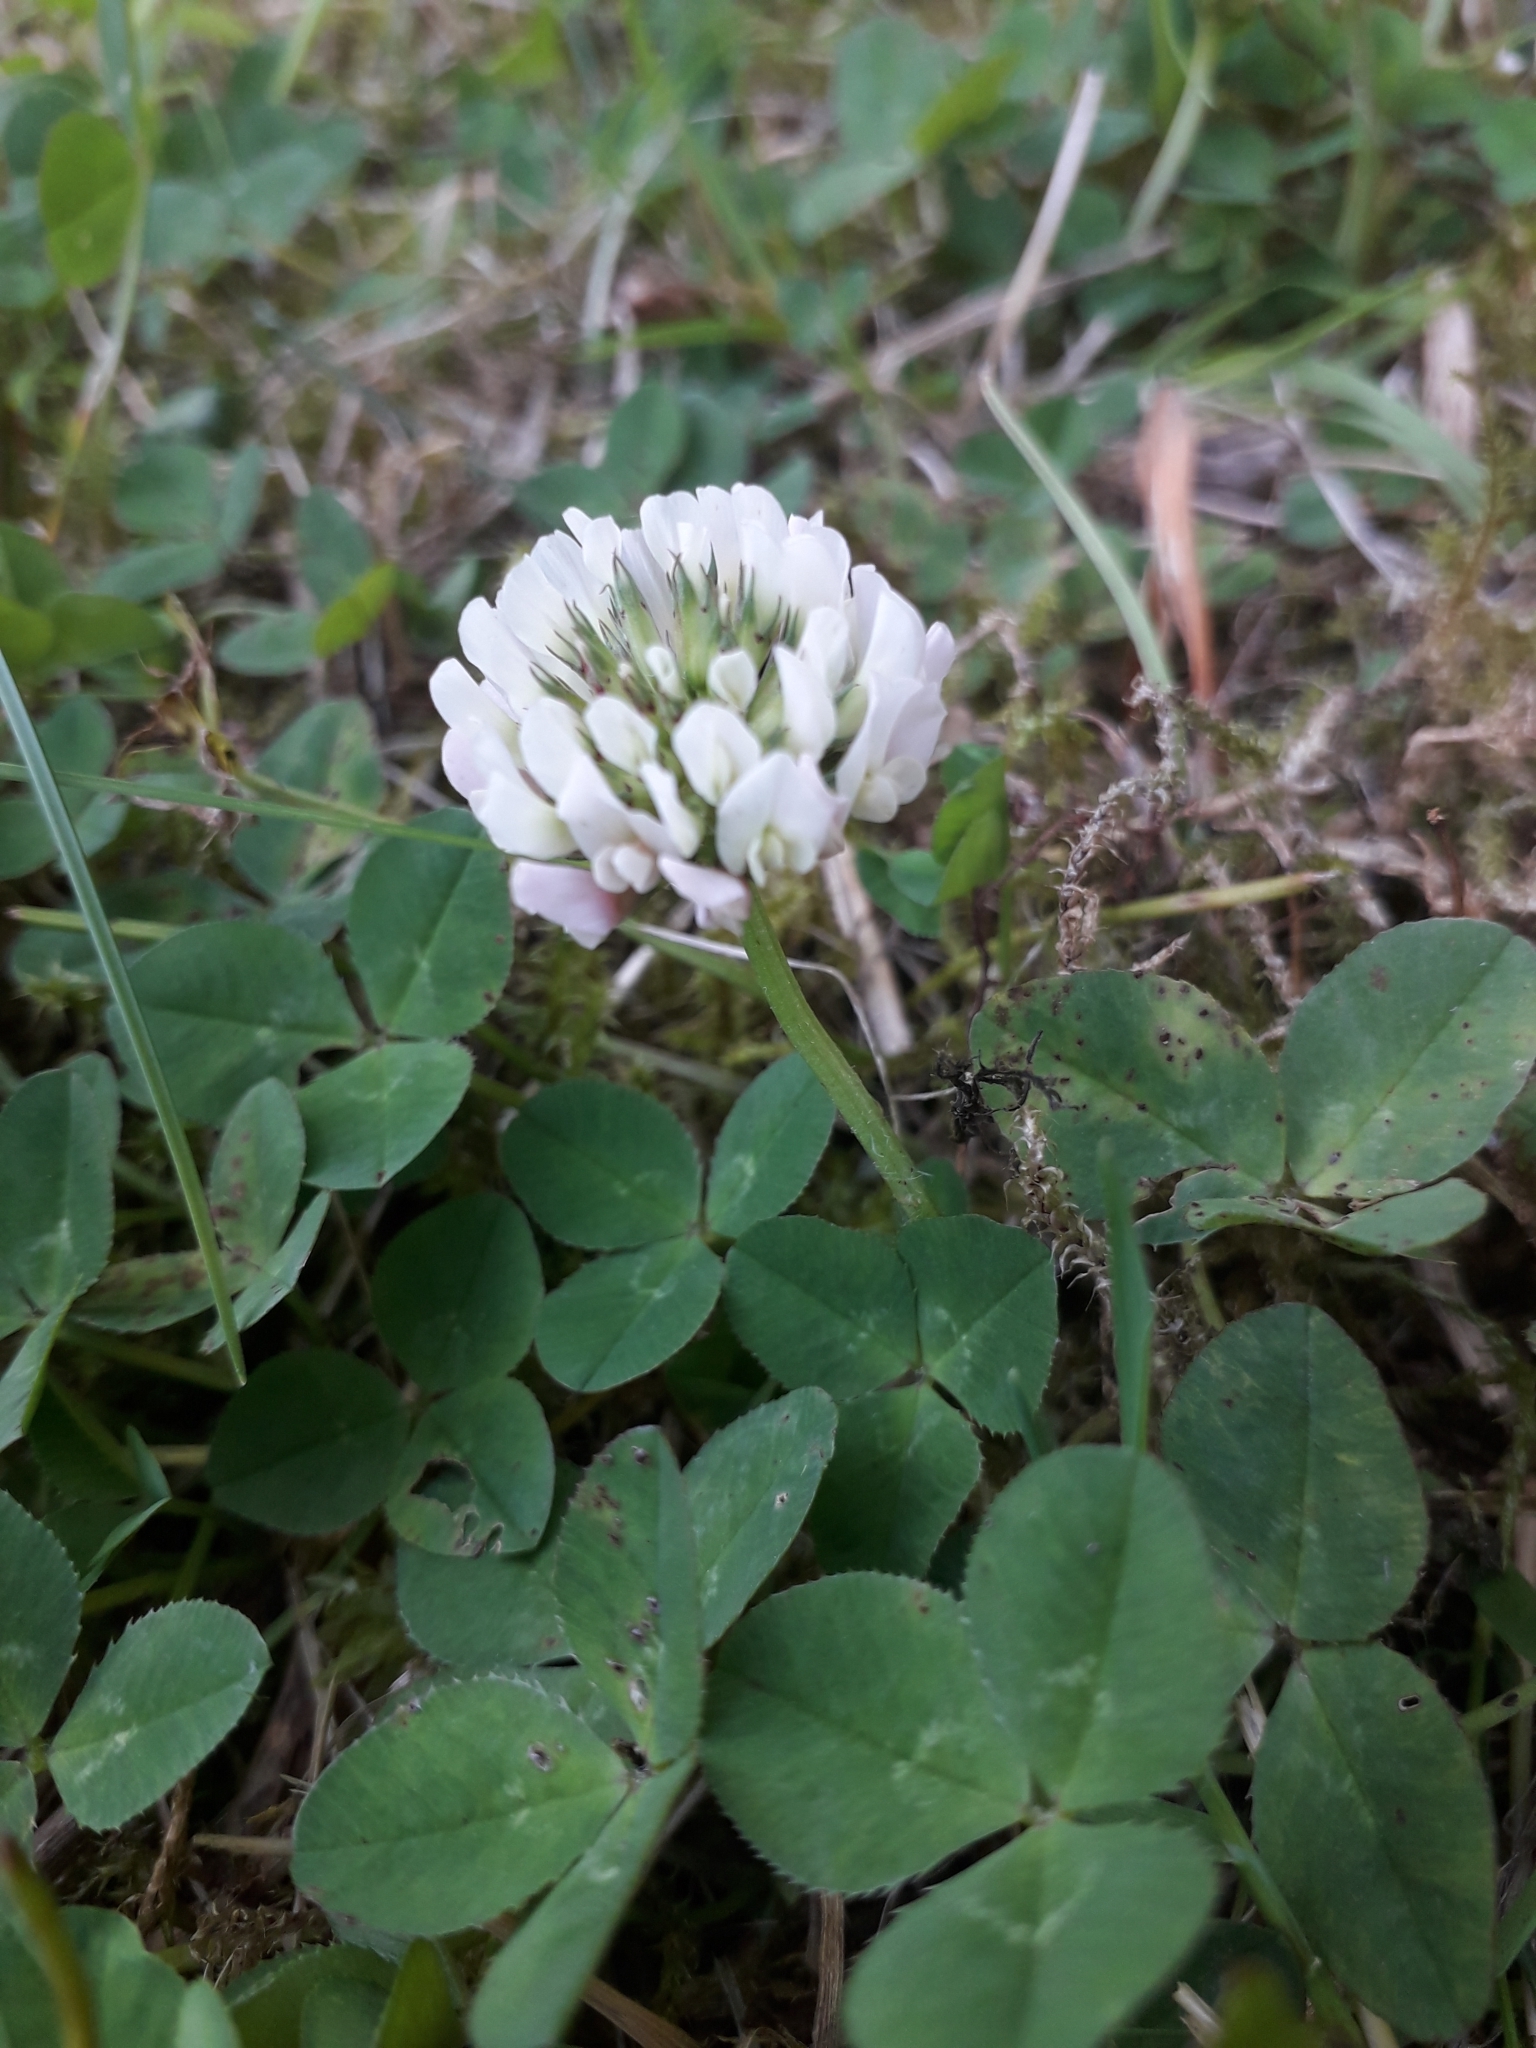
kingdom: Plantae
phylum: Tracheophyta
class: Magnoliopsida
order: Fabales
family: Fabaceae
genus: Trifolium
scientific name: Trifolium repens
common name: White clover
